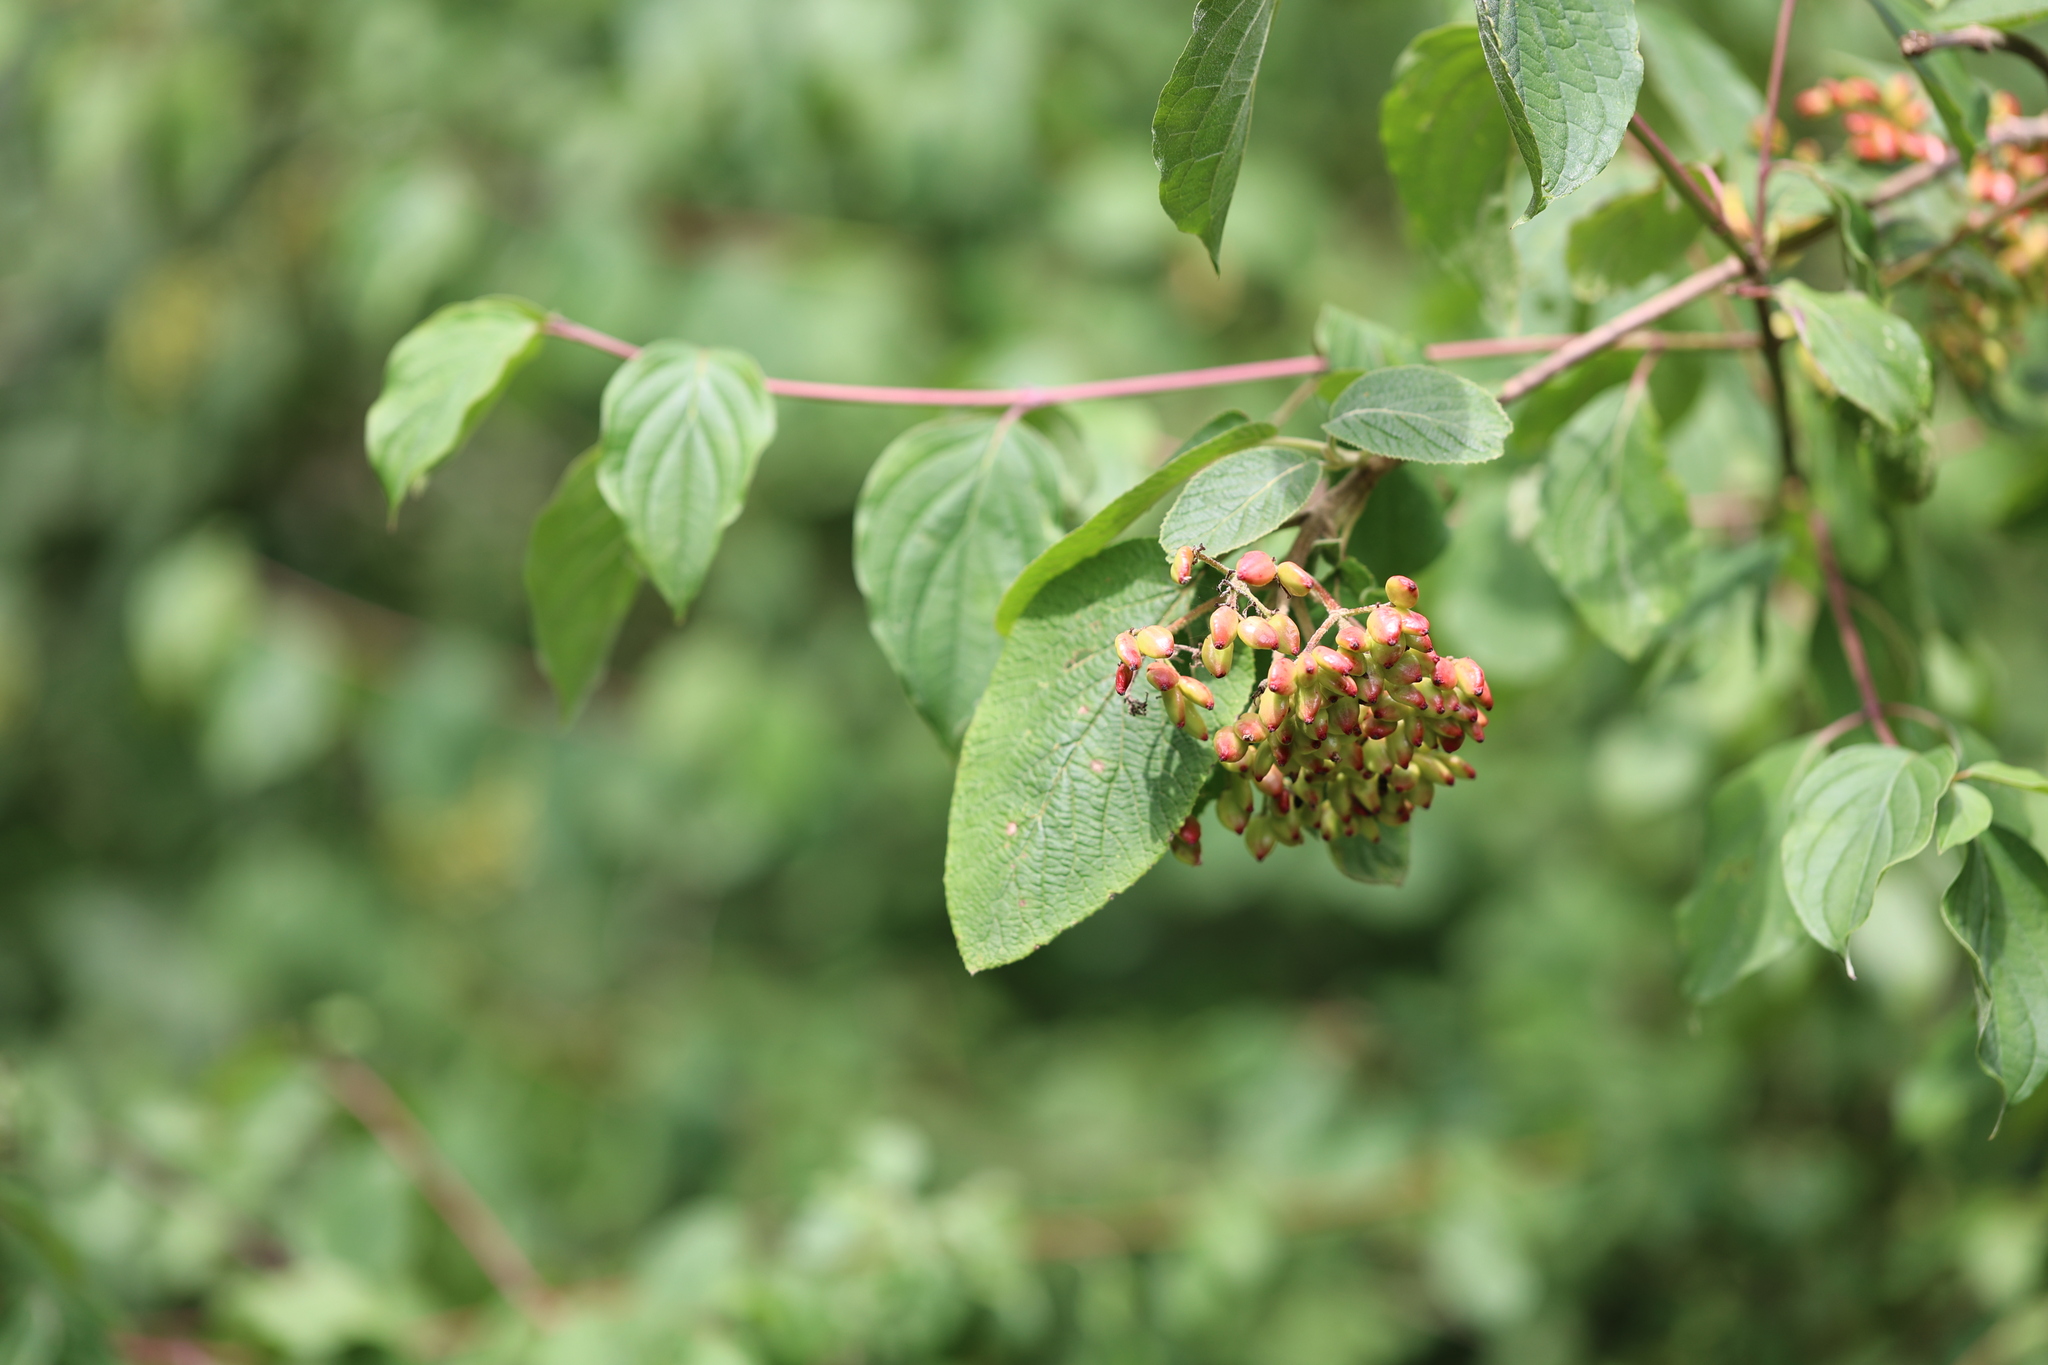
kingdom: Plantae
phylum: Tracheophyta
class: Magnoliopsida
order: Dipsacales
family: Viburnaceae
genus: Viburnum
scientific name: Viburnum lantana
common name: Wayfaring tree
